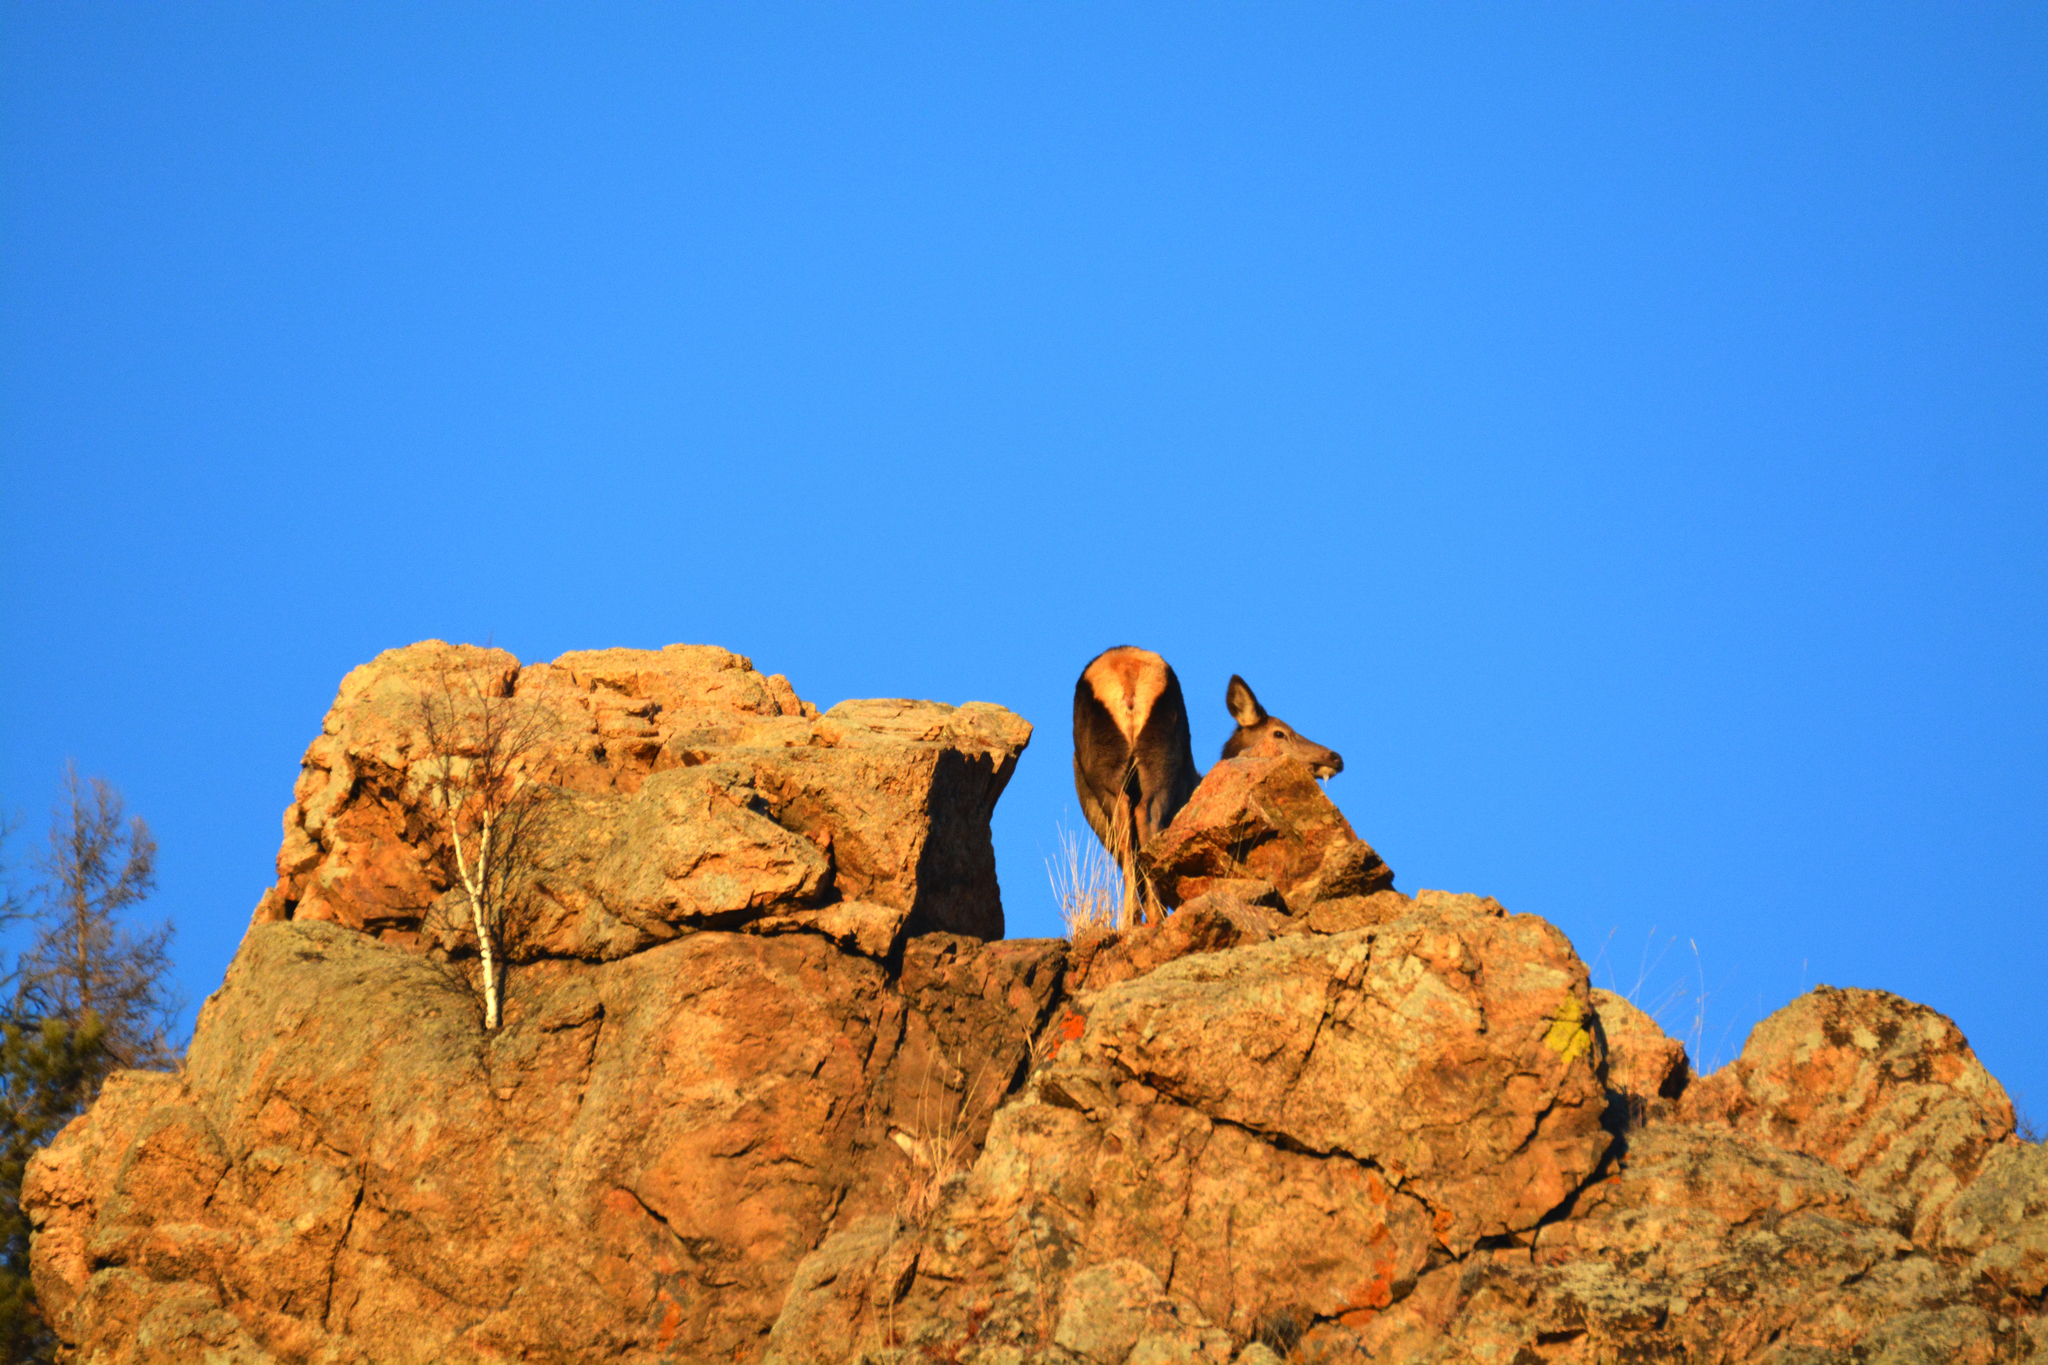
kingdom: Animalia
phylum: Chordata
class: Mammalia
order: Artiodactyla
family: Cervidae
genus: Cervus
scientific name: Cervus elaphus
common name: Red deer
